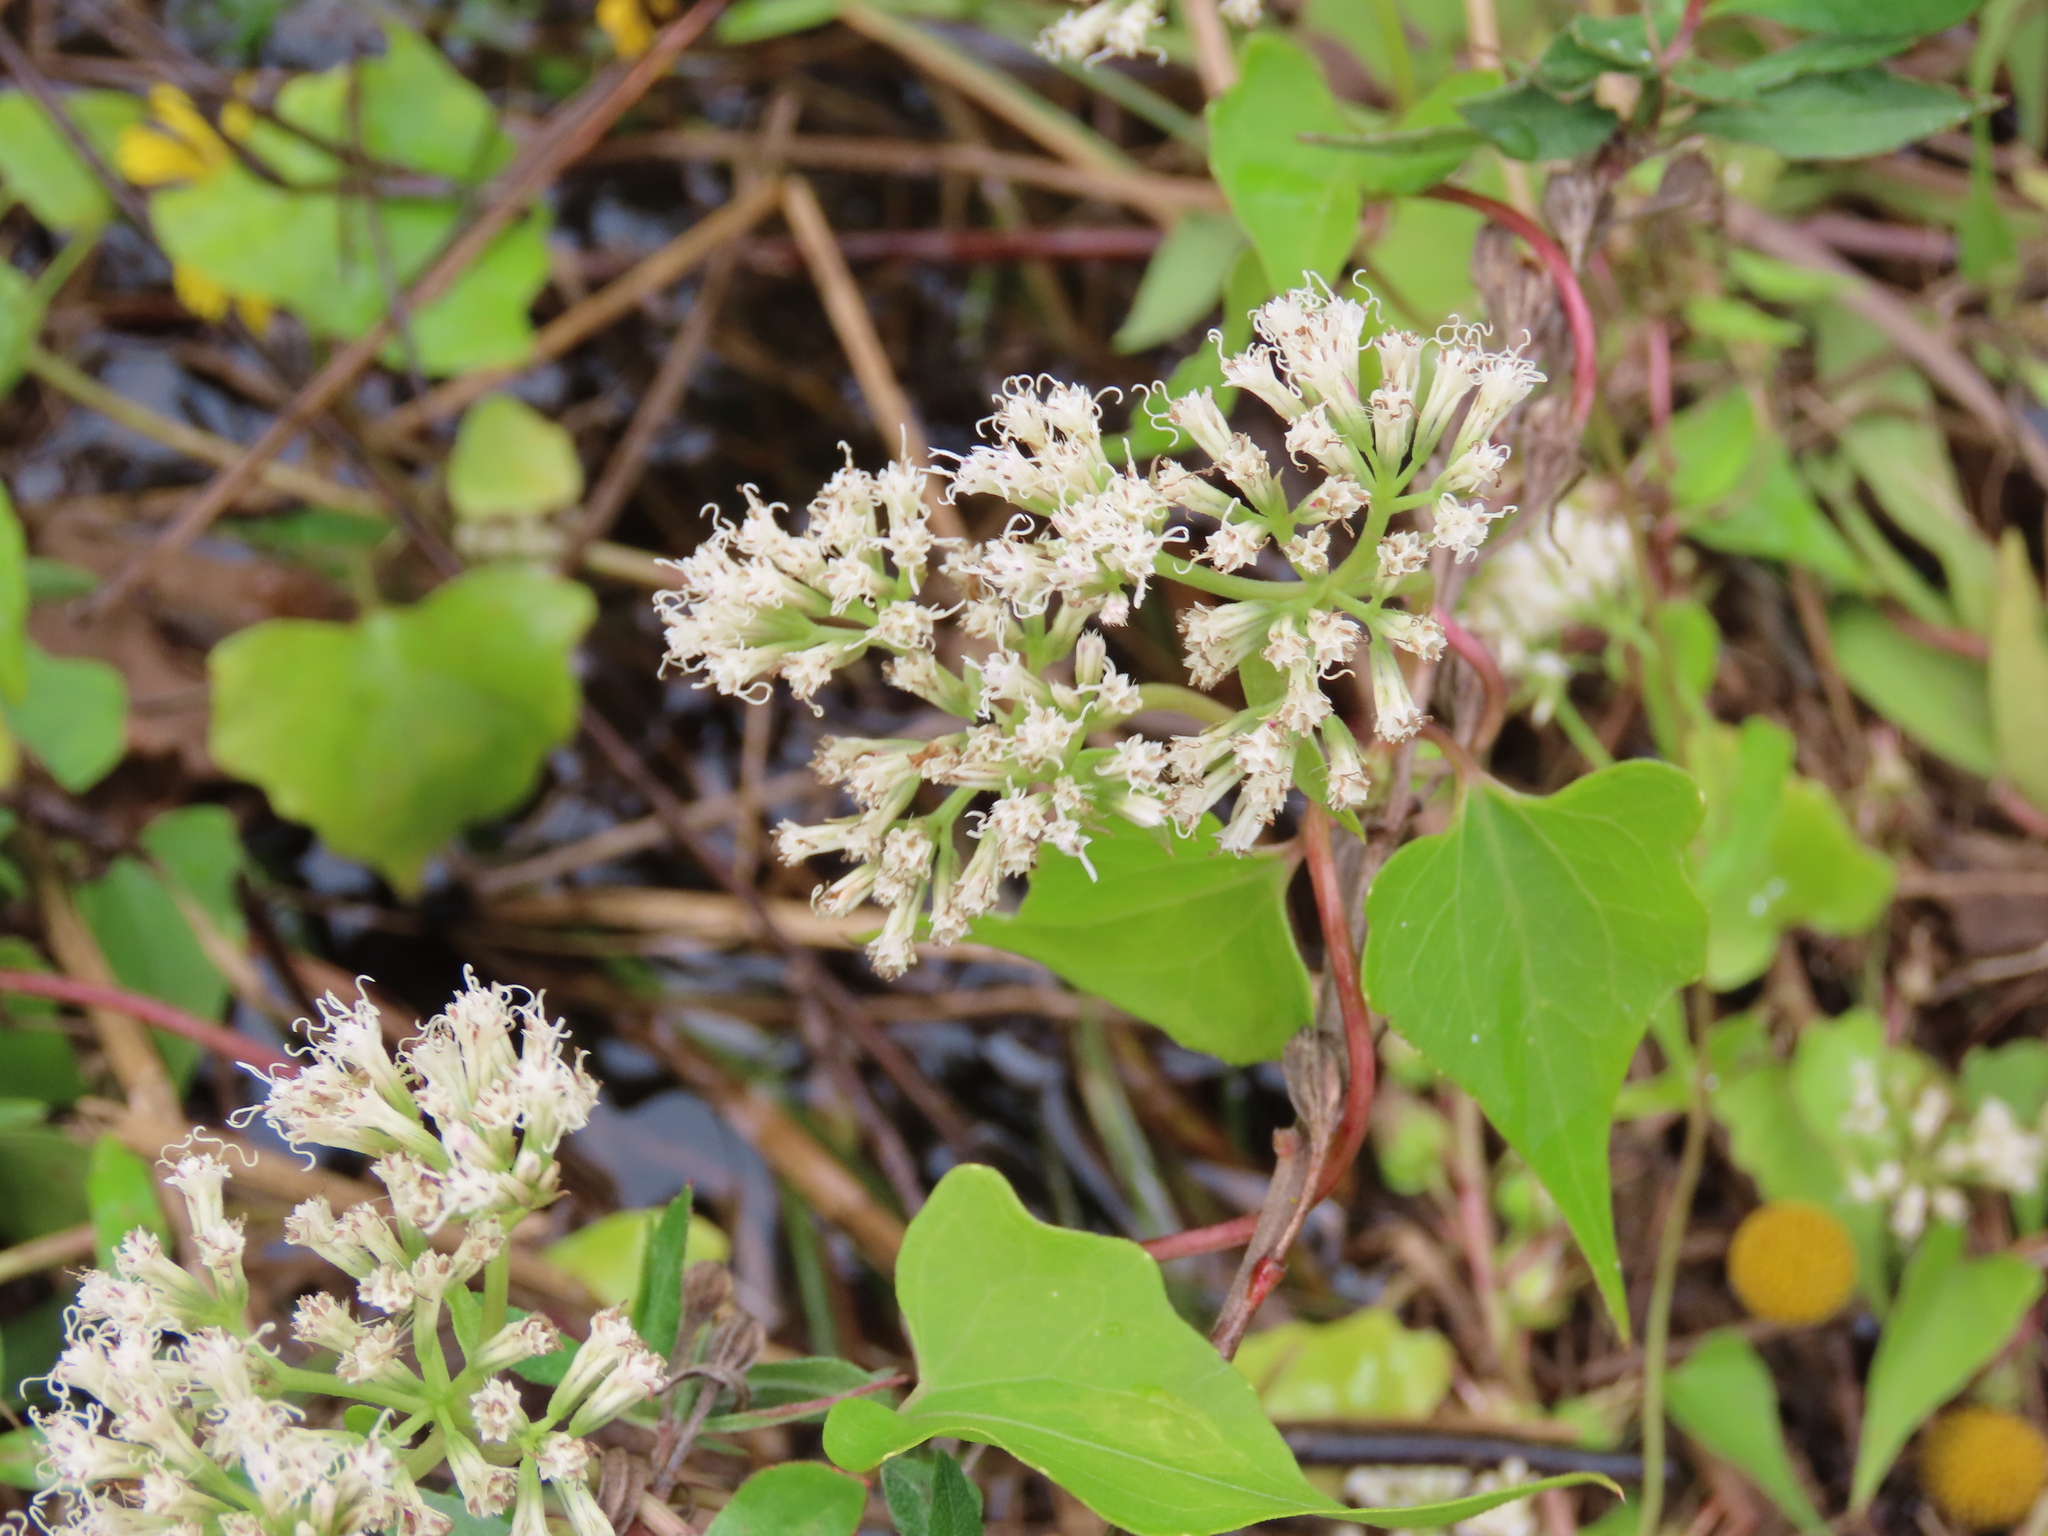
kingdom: Plantae
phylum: Tracheophyta
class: Magnoliopsida
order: Asterales
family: Asteraceae
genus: Mikania
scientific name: Mikania scandens
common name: Climbing hempvine
